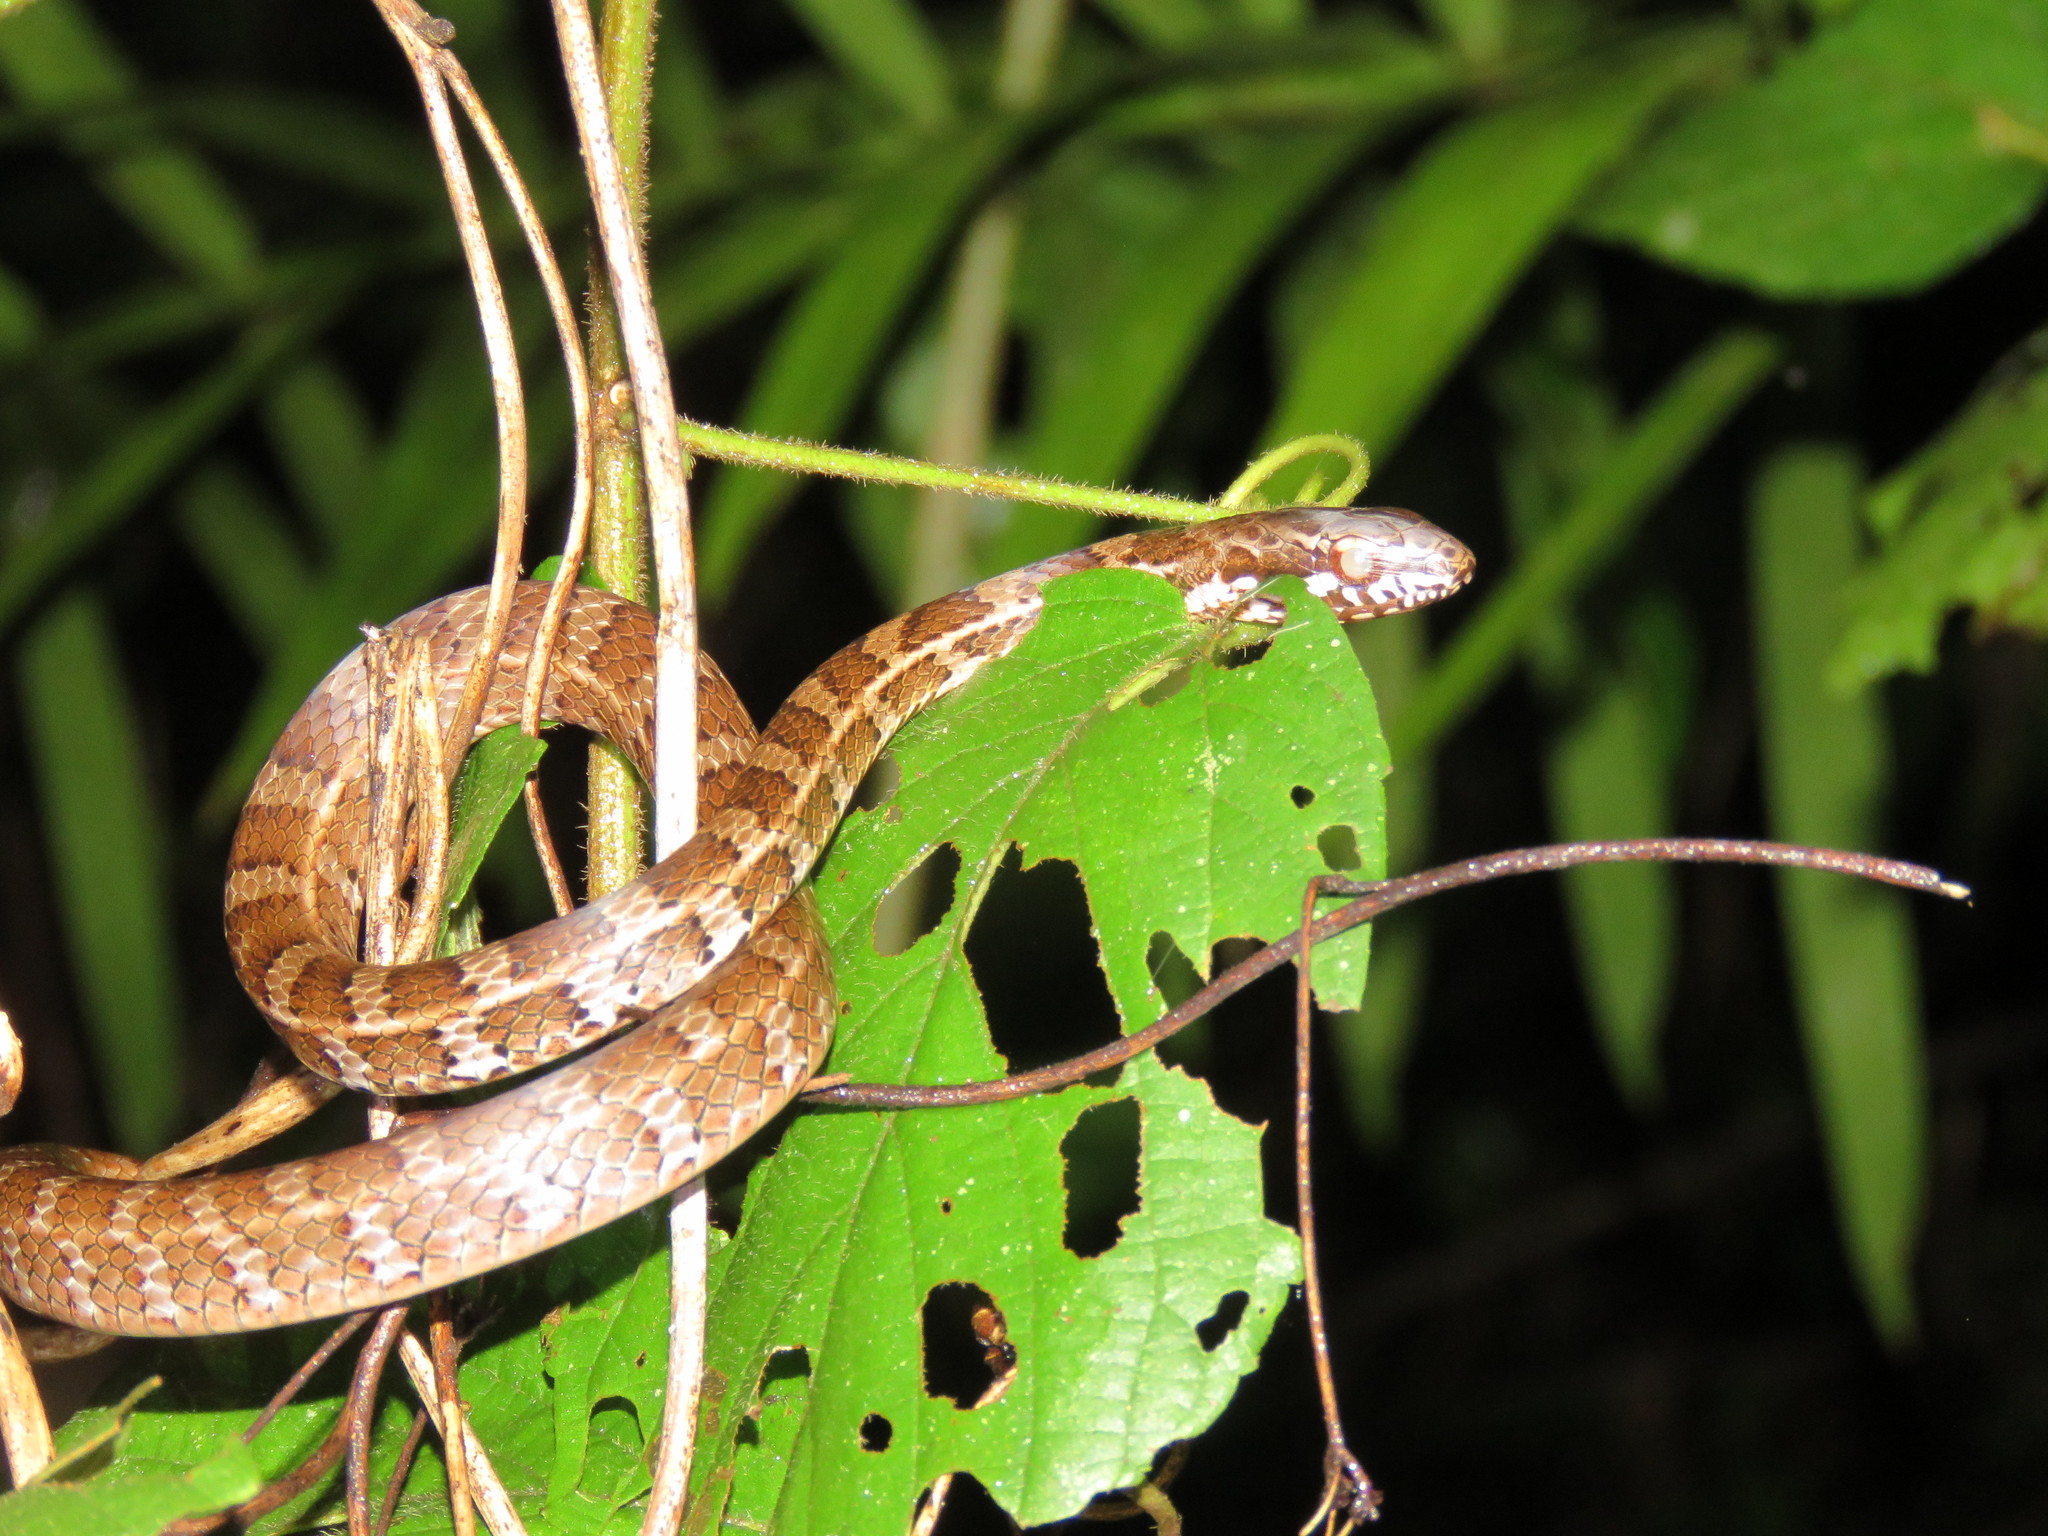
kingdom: Animalia
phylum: Chordata
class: Squamata
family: Colubridae
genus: Mastigodryas
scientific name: Mastigodryas boddaerti
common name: Boddaert's tropical racer
